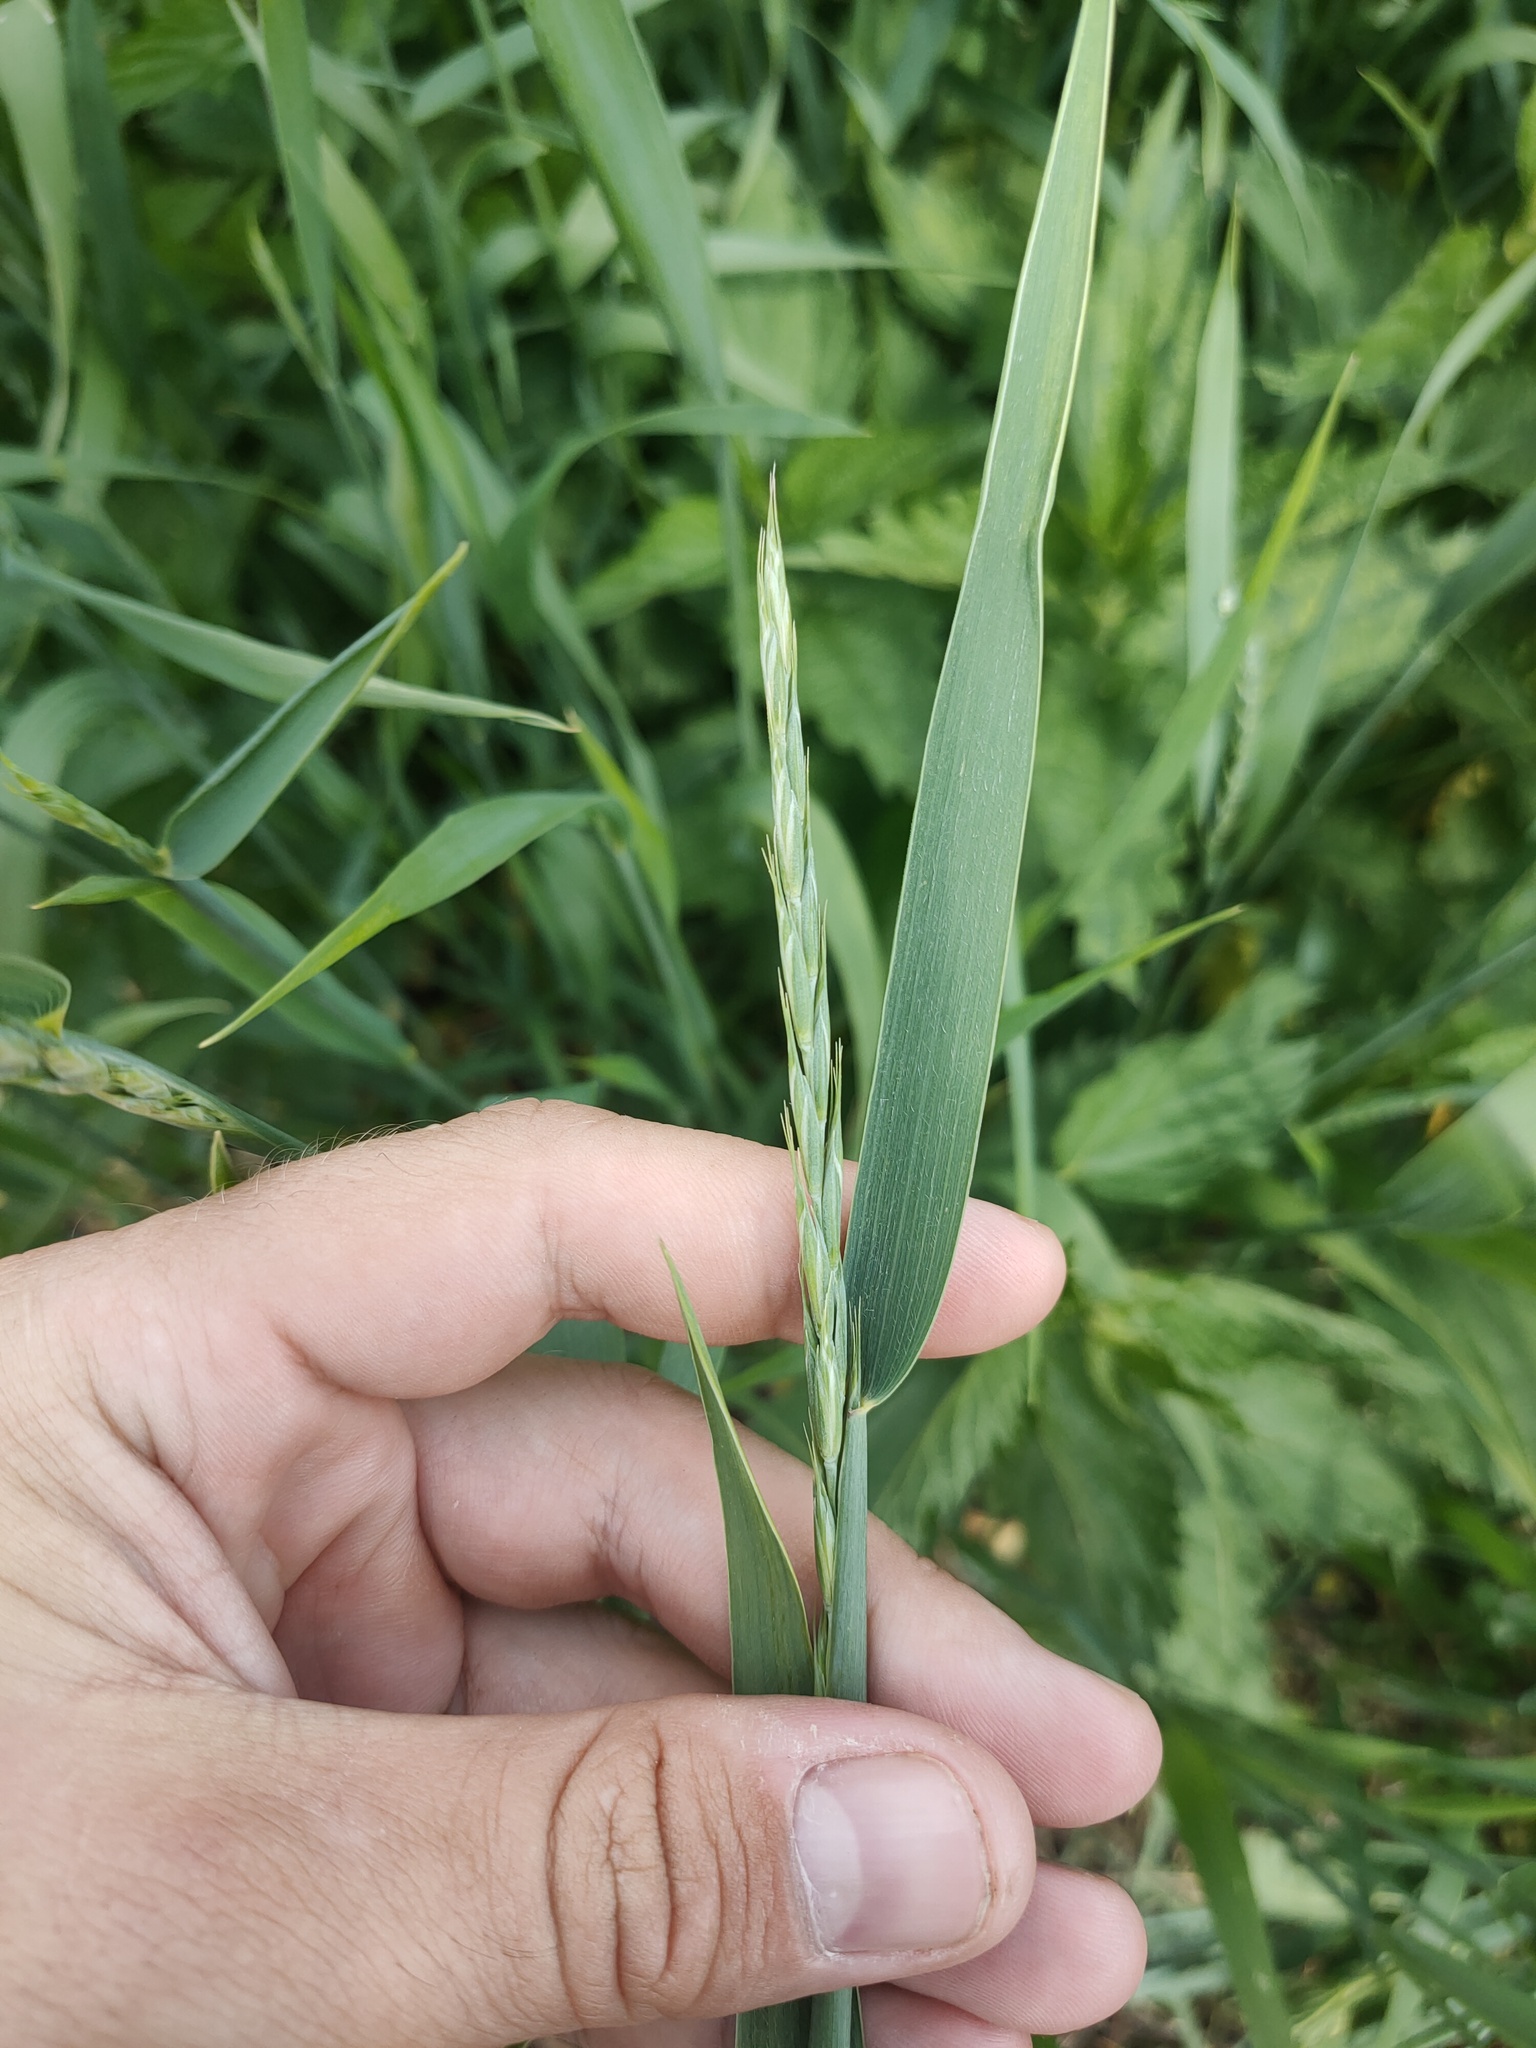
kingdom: Plantae
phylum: Tracheophyta
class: Liliopsida
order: Poales
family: Poaceae
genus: Elymus
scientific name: Elymus repens
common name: Quackgrass
